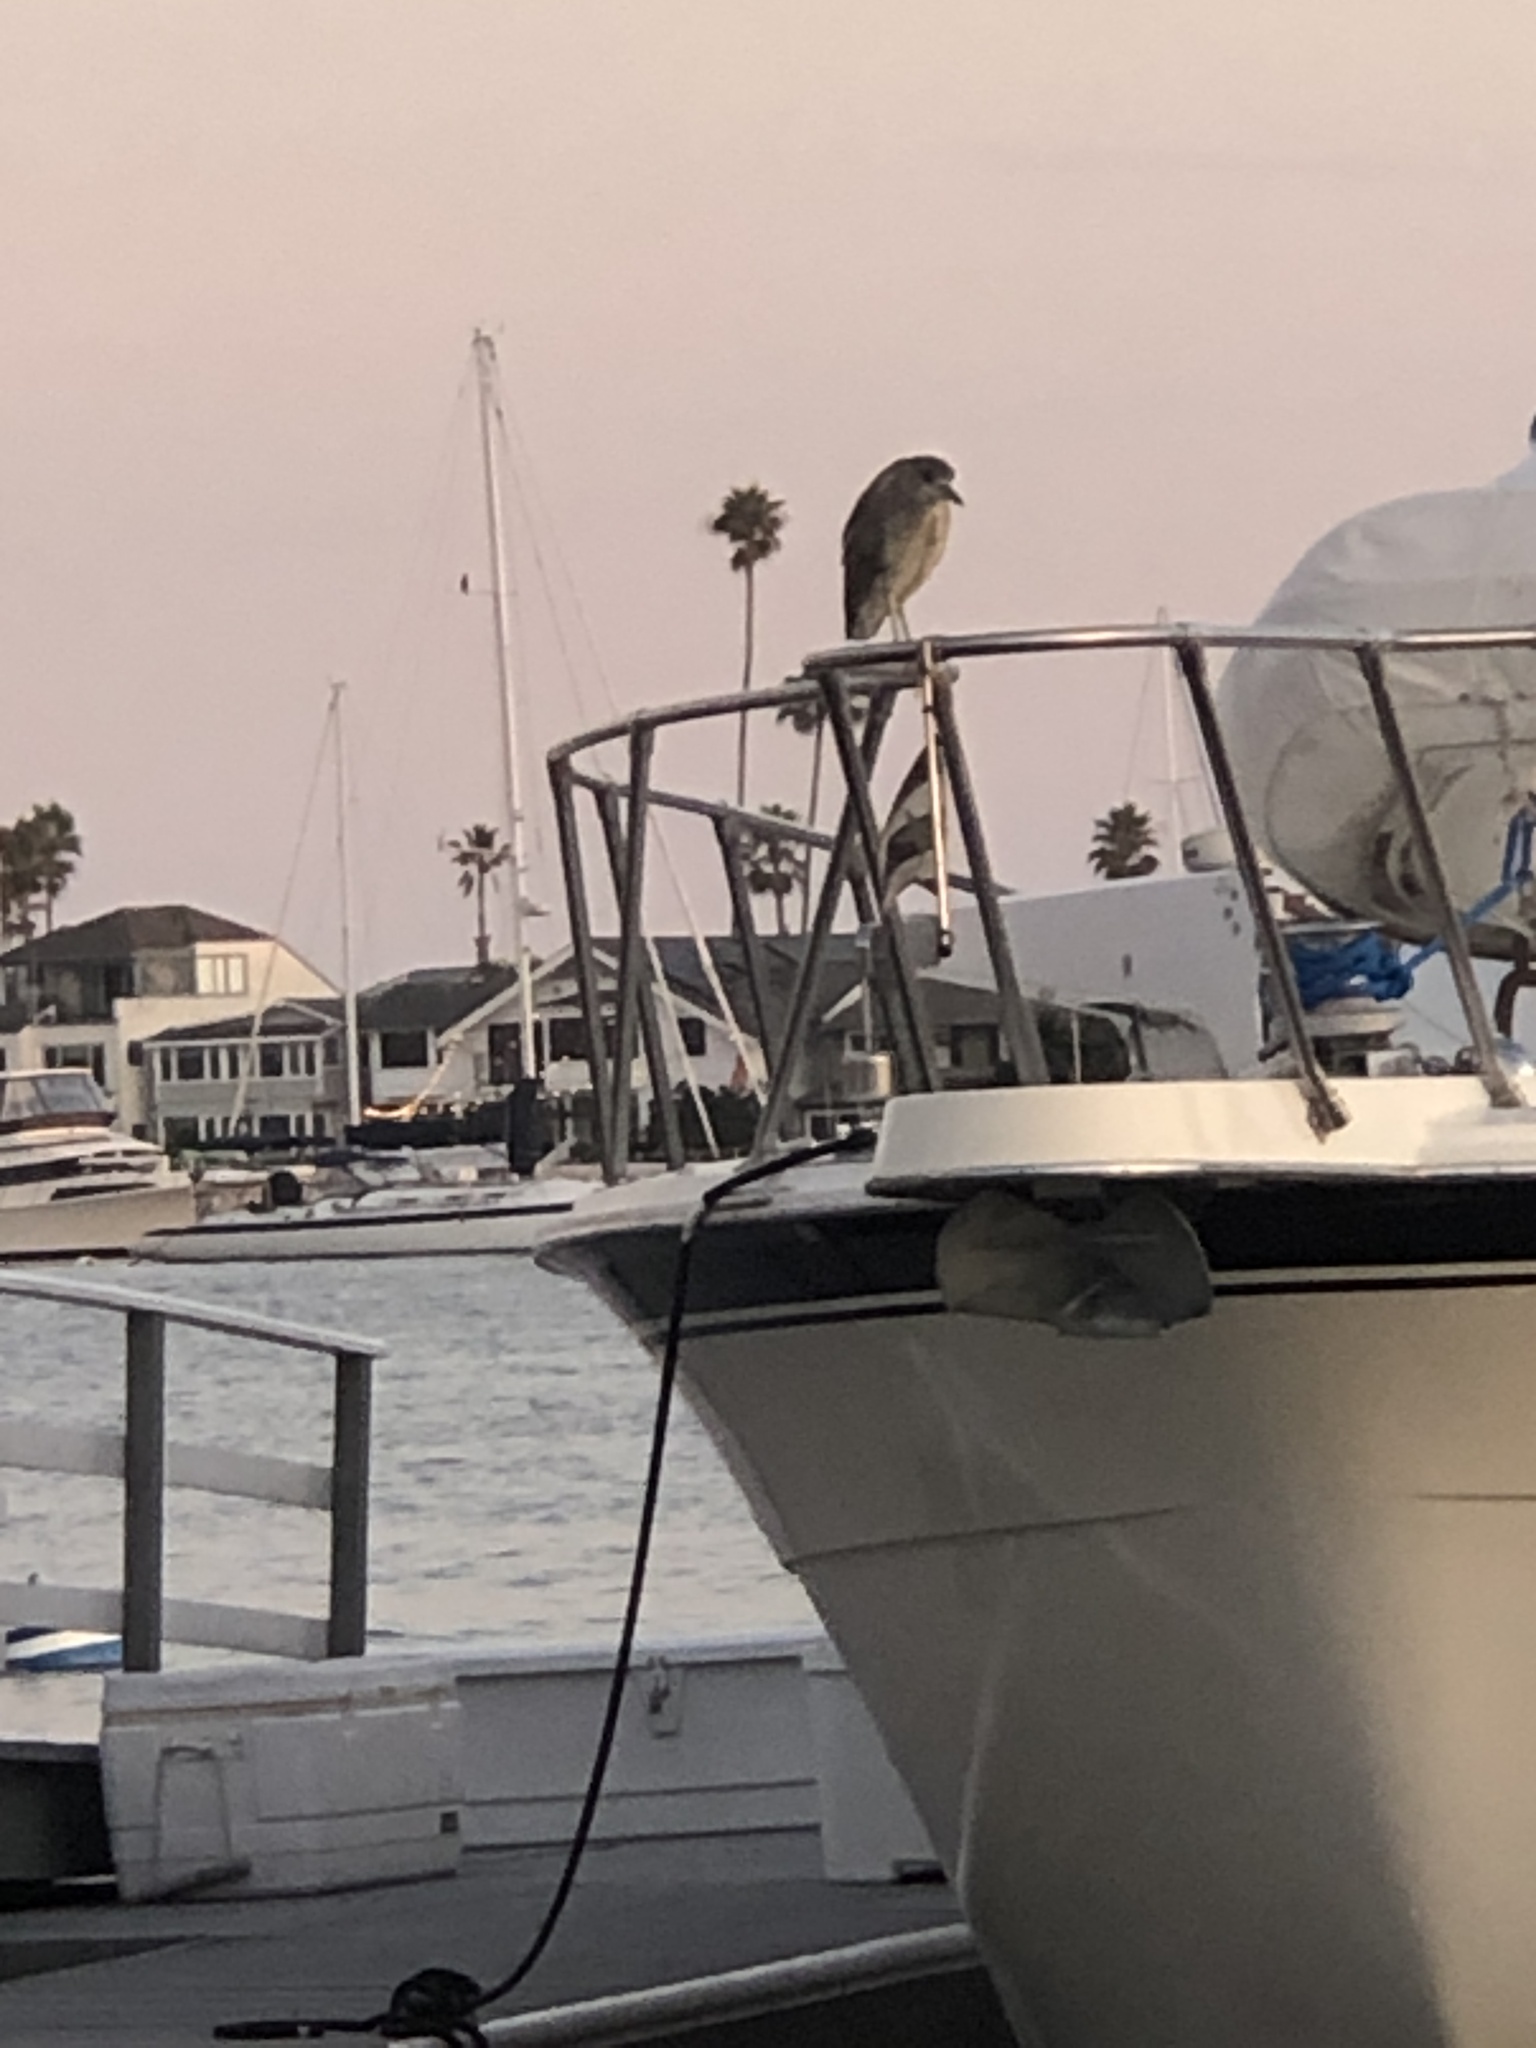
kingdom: Animalia
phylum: Chordata
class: Aves
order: Pelecaniformes
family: Ardeidae
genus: Nycticorax
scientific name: Nycticorax nycticorax
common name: Black-crowned night heron
